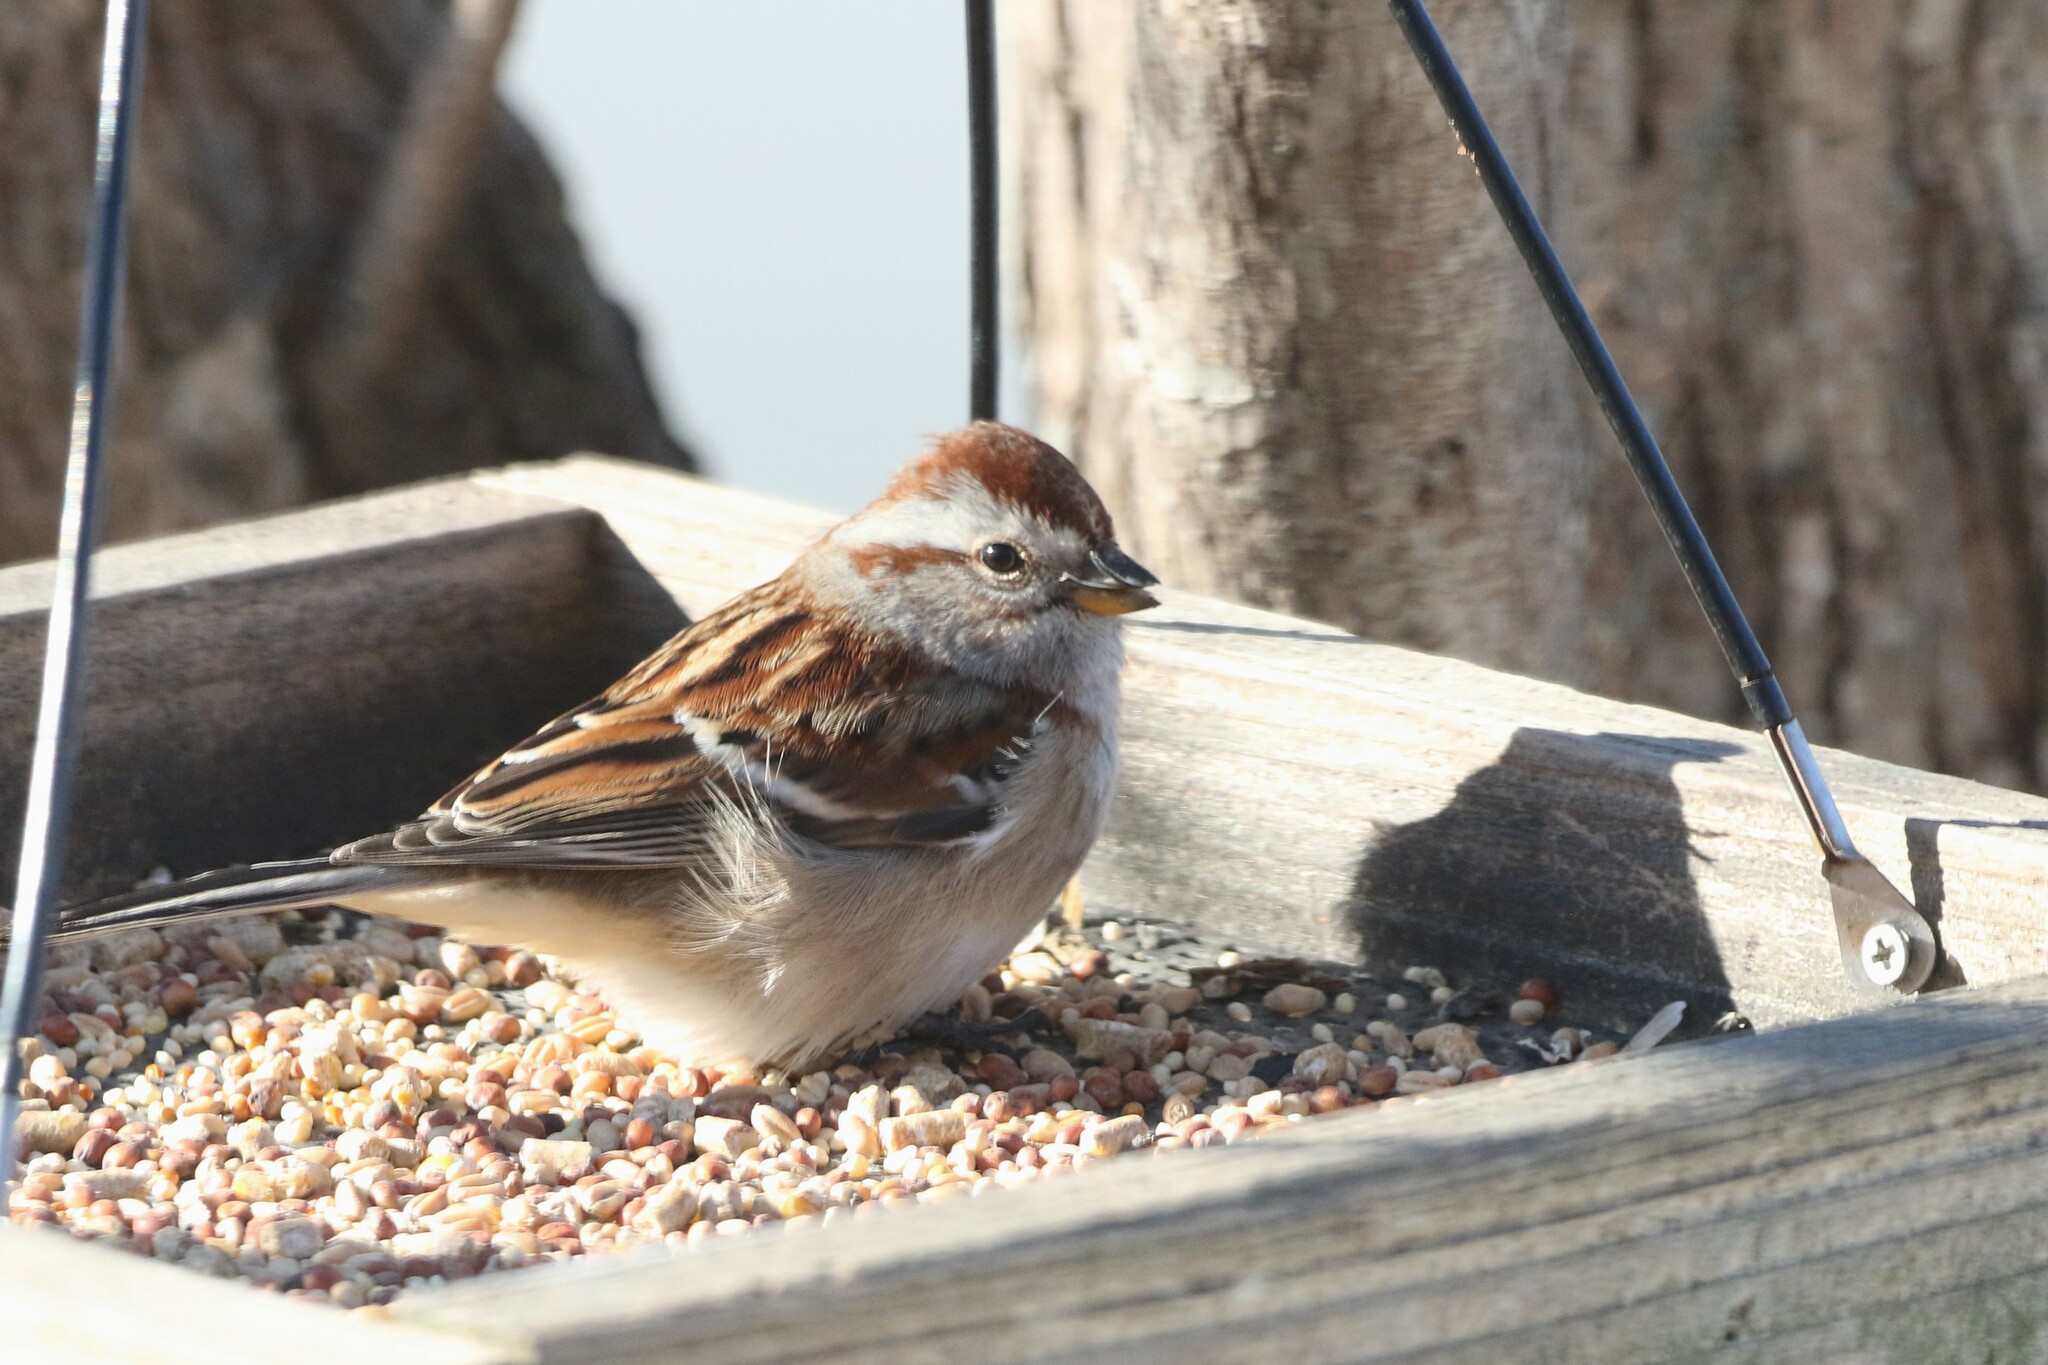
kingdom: Animalia
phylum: Chordata
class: Aves
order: Passeriformes
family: Passerellidae
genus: Spizelloides
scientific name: Spizelloides arborea
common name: American tree sparrow
